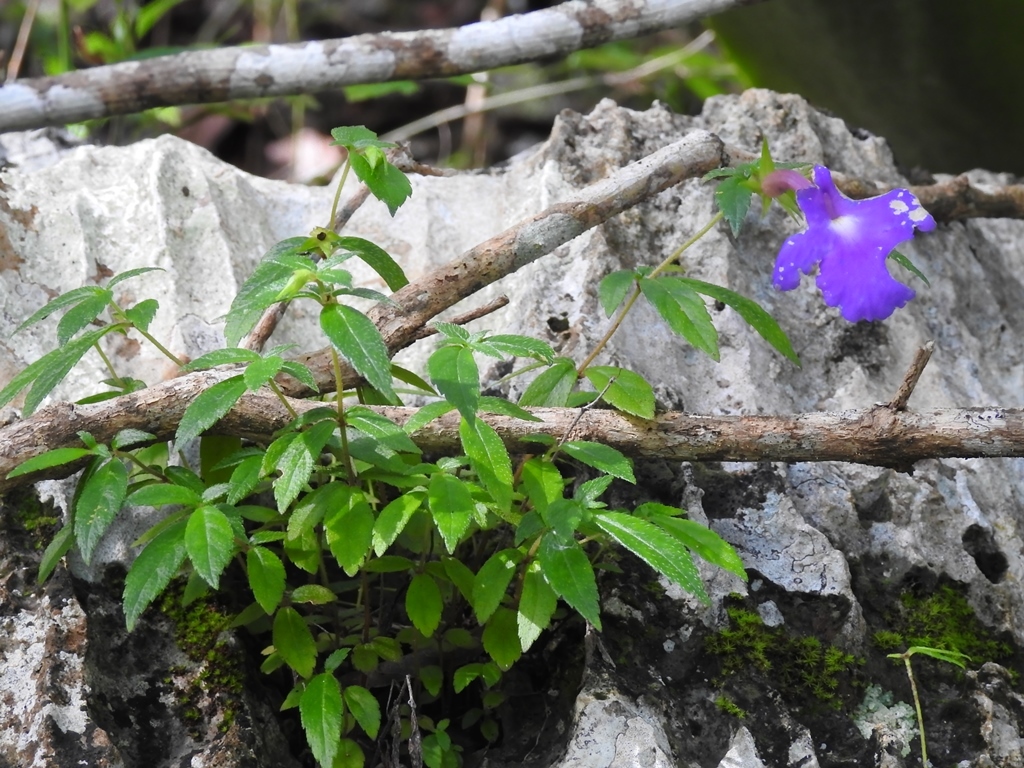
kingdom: Plantae
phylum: Tracheophyta
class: Magnoliopsida
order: Lamiales
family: Gesneriaceae
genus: Achimenes
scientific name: Achimenes cettoana
